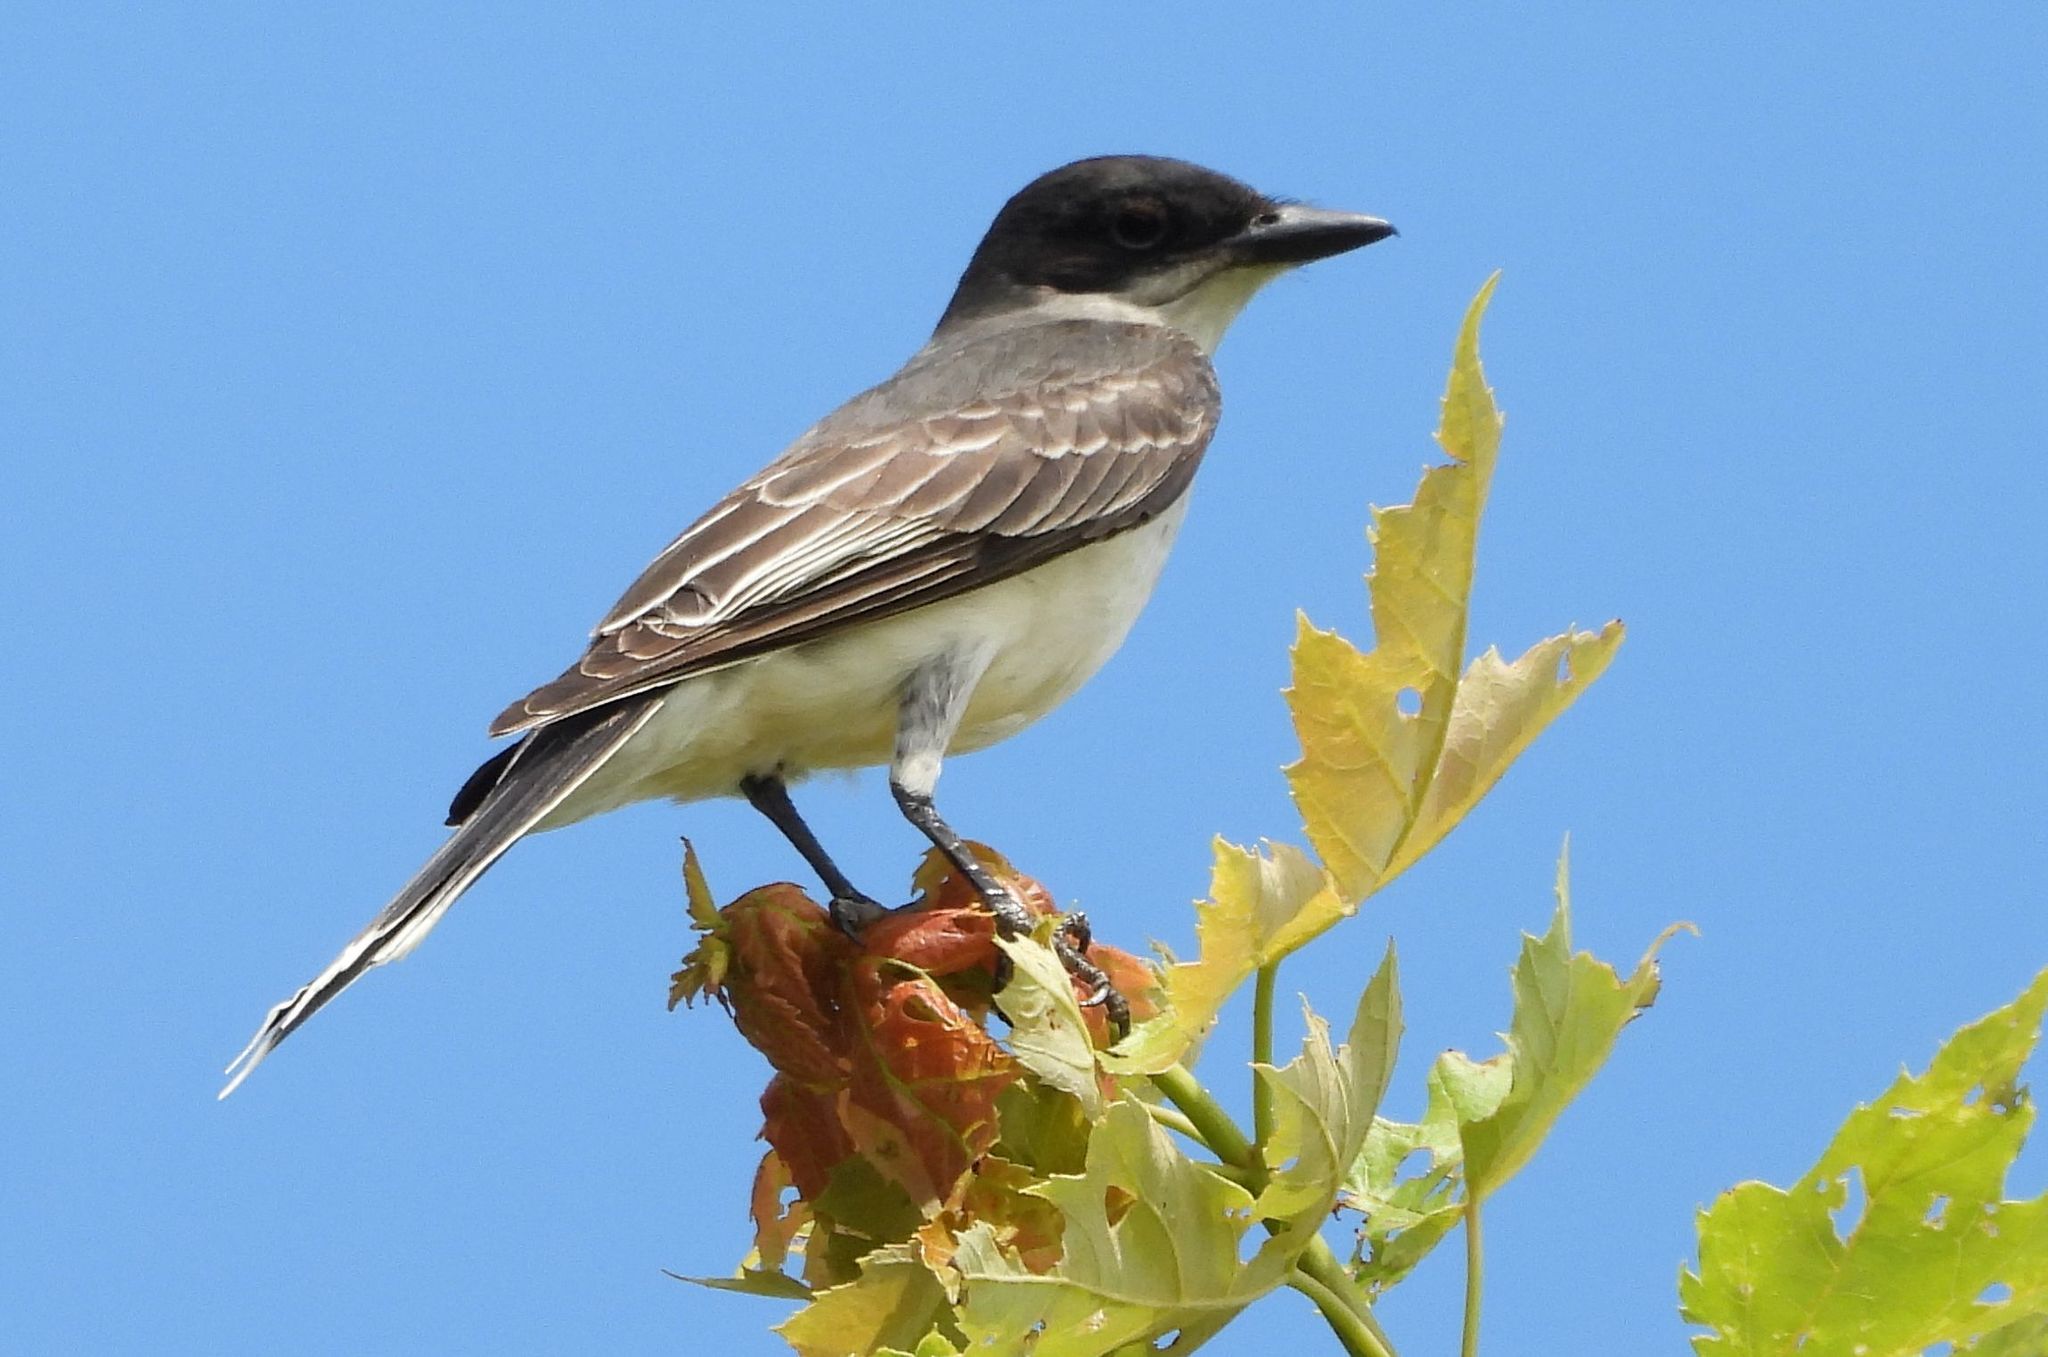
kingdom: Animalia
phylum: Chordata
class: Aves
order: Passeriformes
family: Tyrannidae
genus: Tyrannus
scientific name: Tyrannus tyrannus
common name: Eastern kingbird
